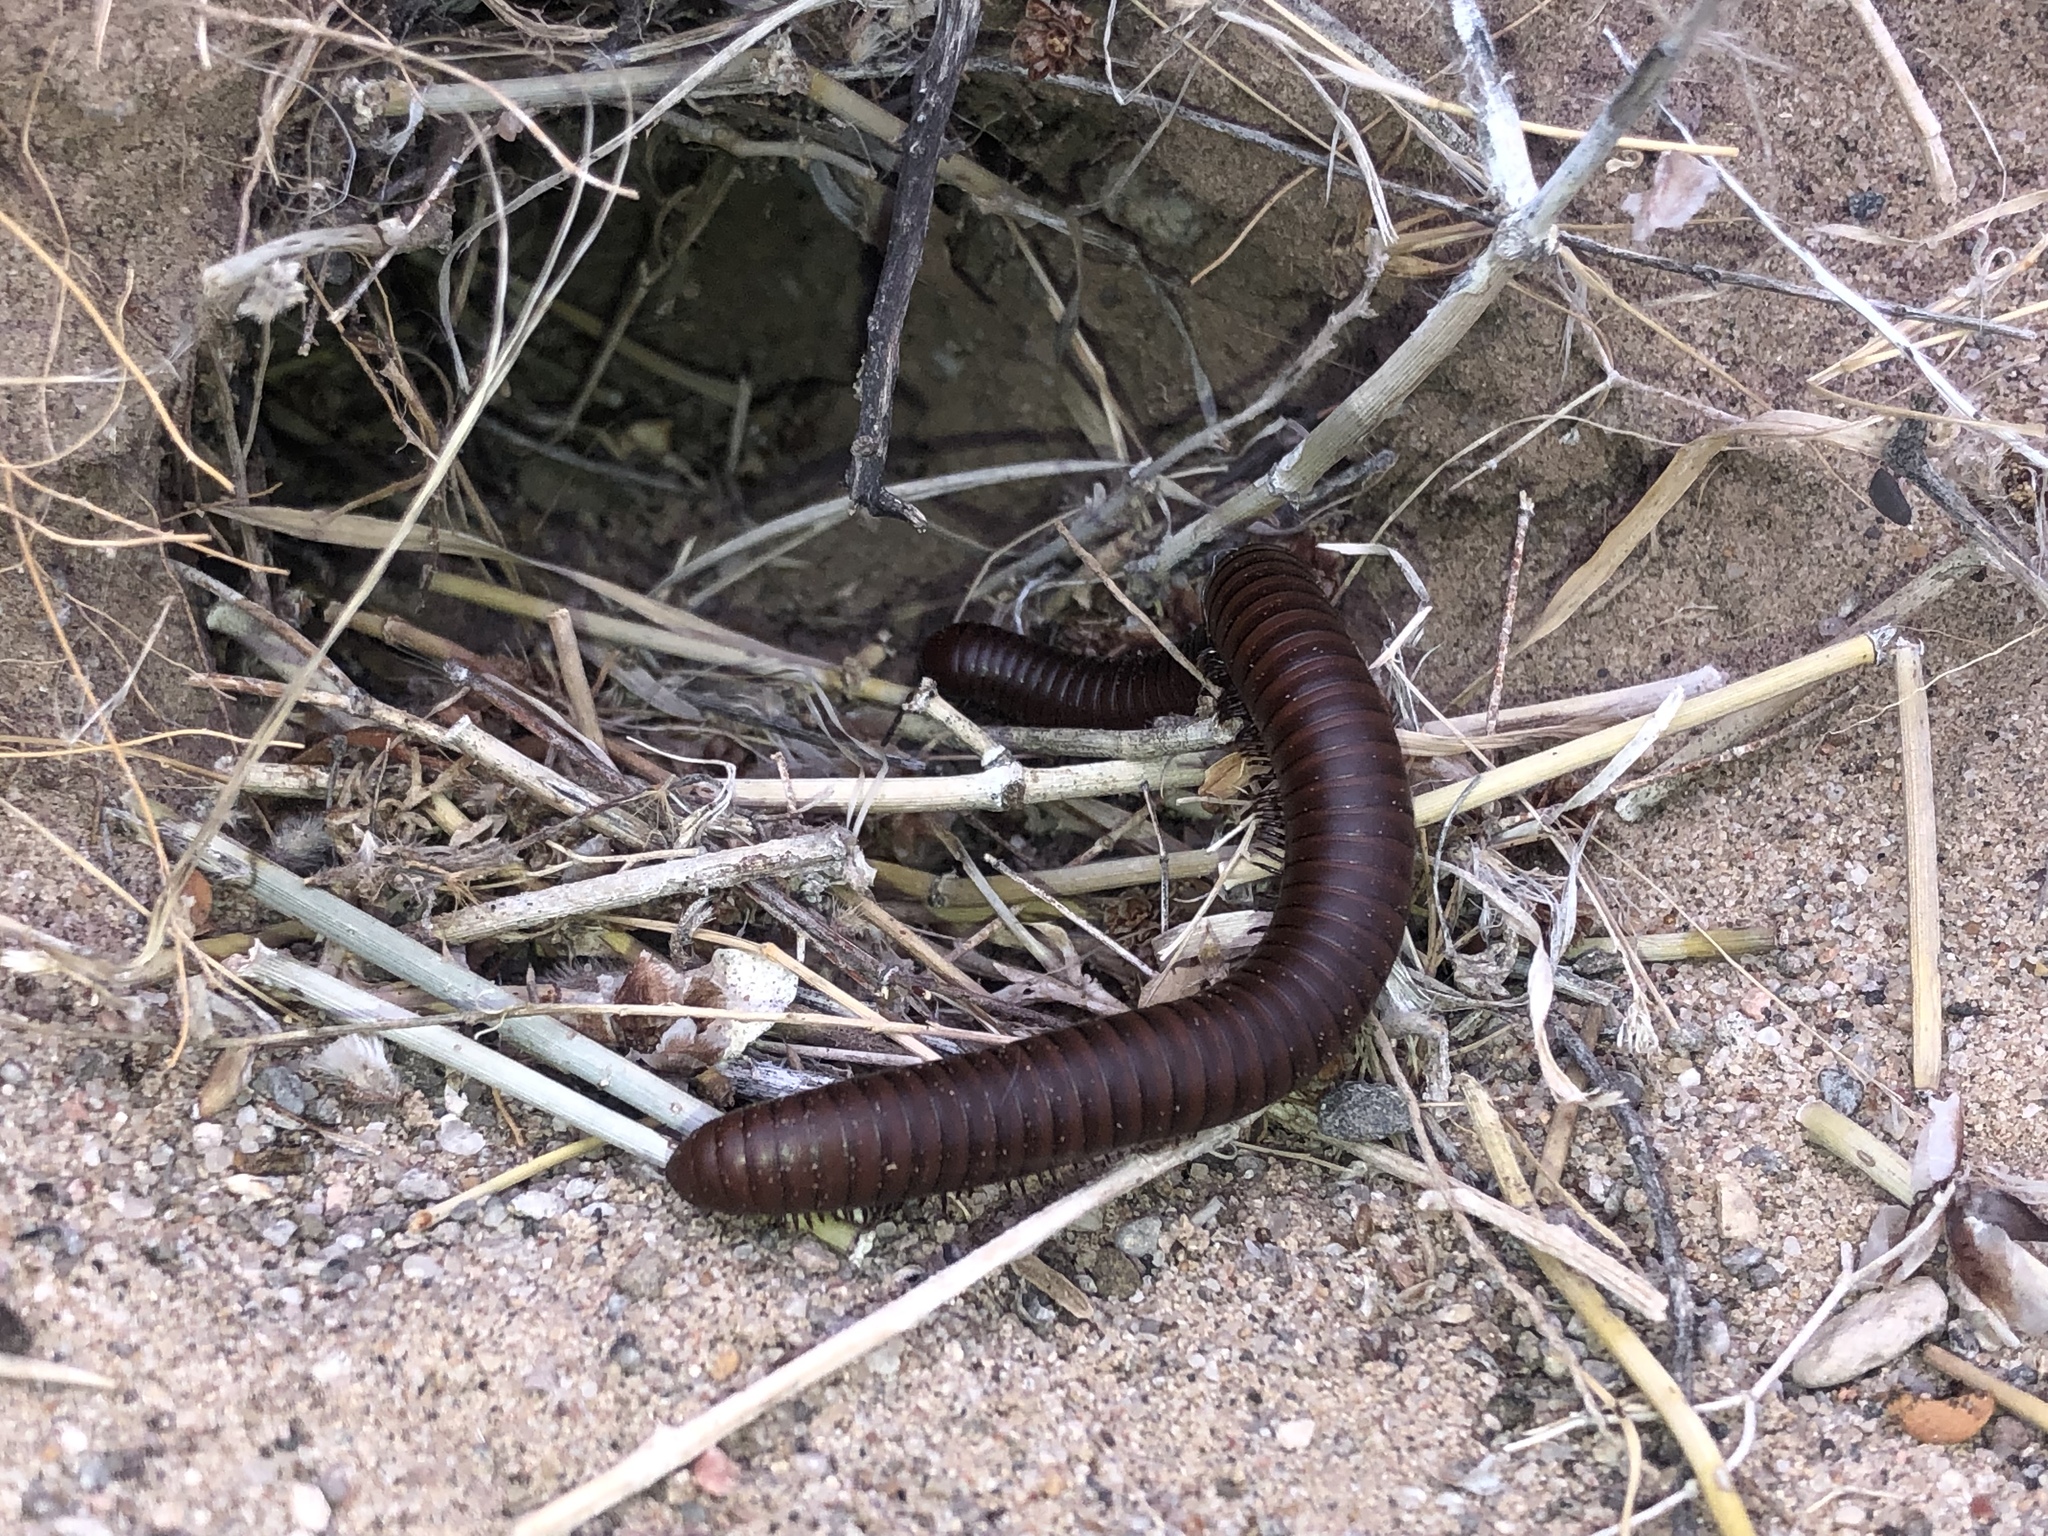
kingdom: Animalia
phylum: Arthropoda
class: Diplopoda
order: Spirostreptida
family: Spirostreptidae
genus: Orthoporus
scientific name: Orthoporus ornatus
